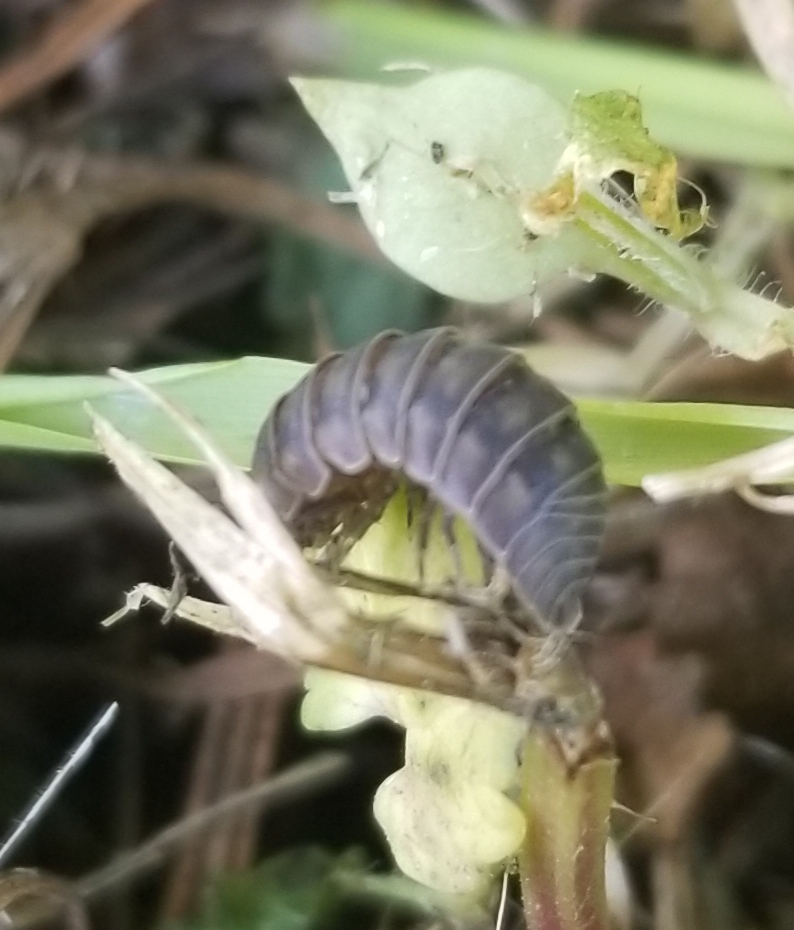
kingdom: Animalia
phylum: Arthropoda
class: Malacostraca
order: Isopoda
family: Armadillidiidae
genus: Armadillidium
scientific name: Armadillidium nasatum
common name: Isopod
